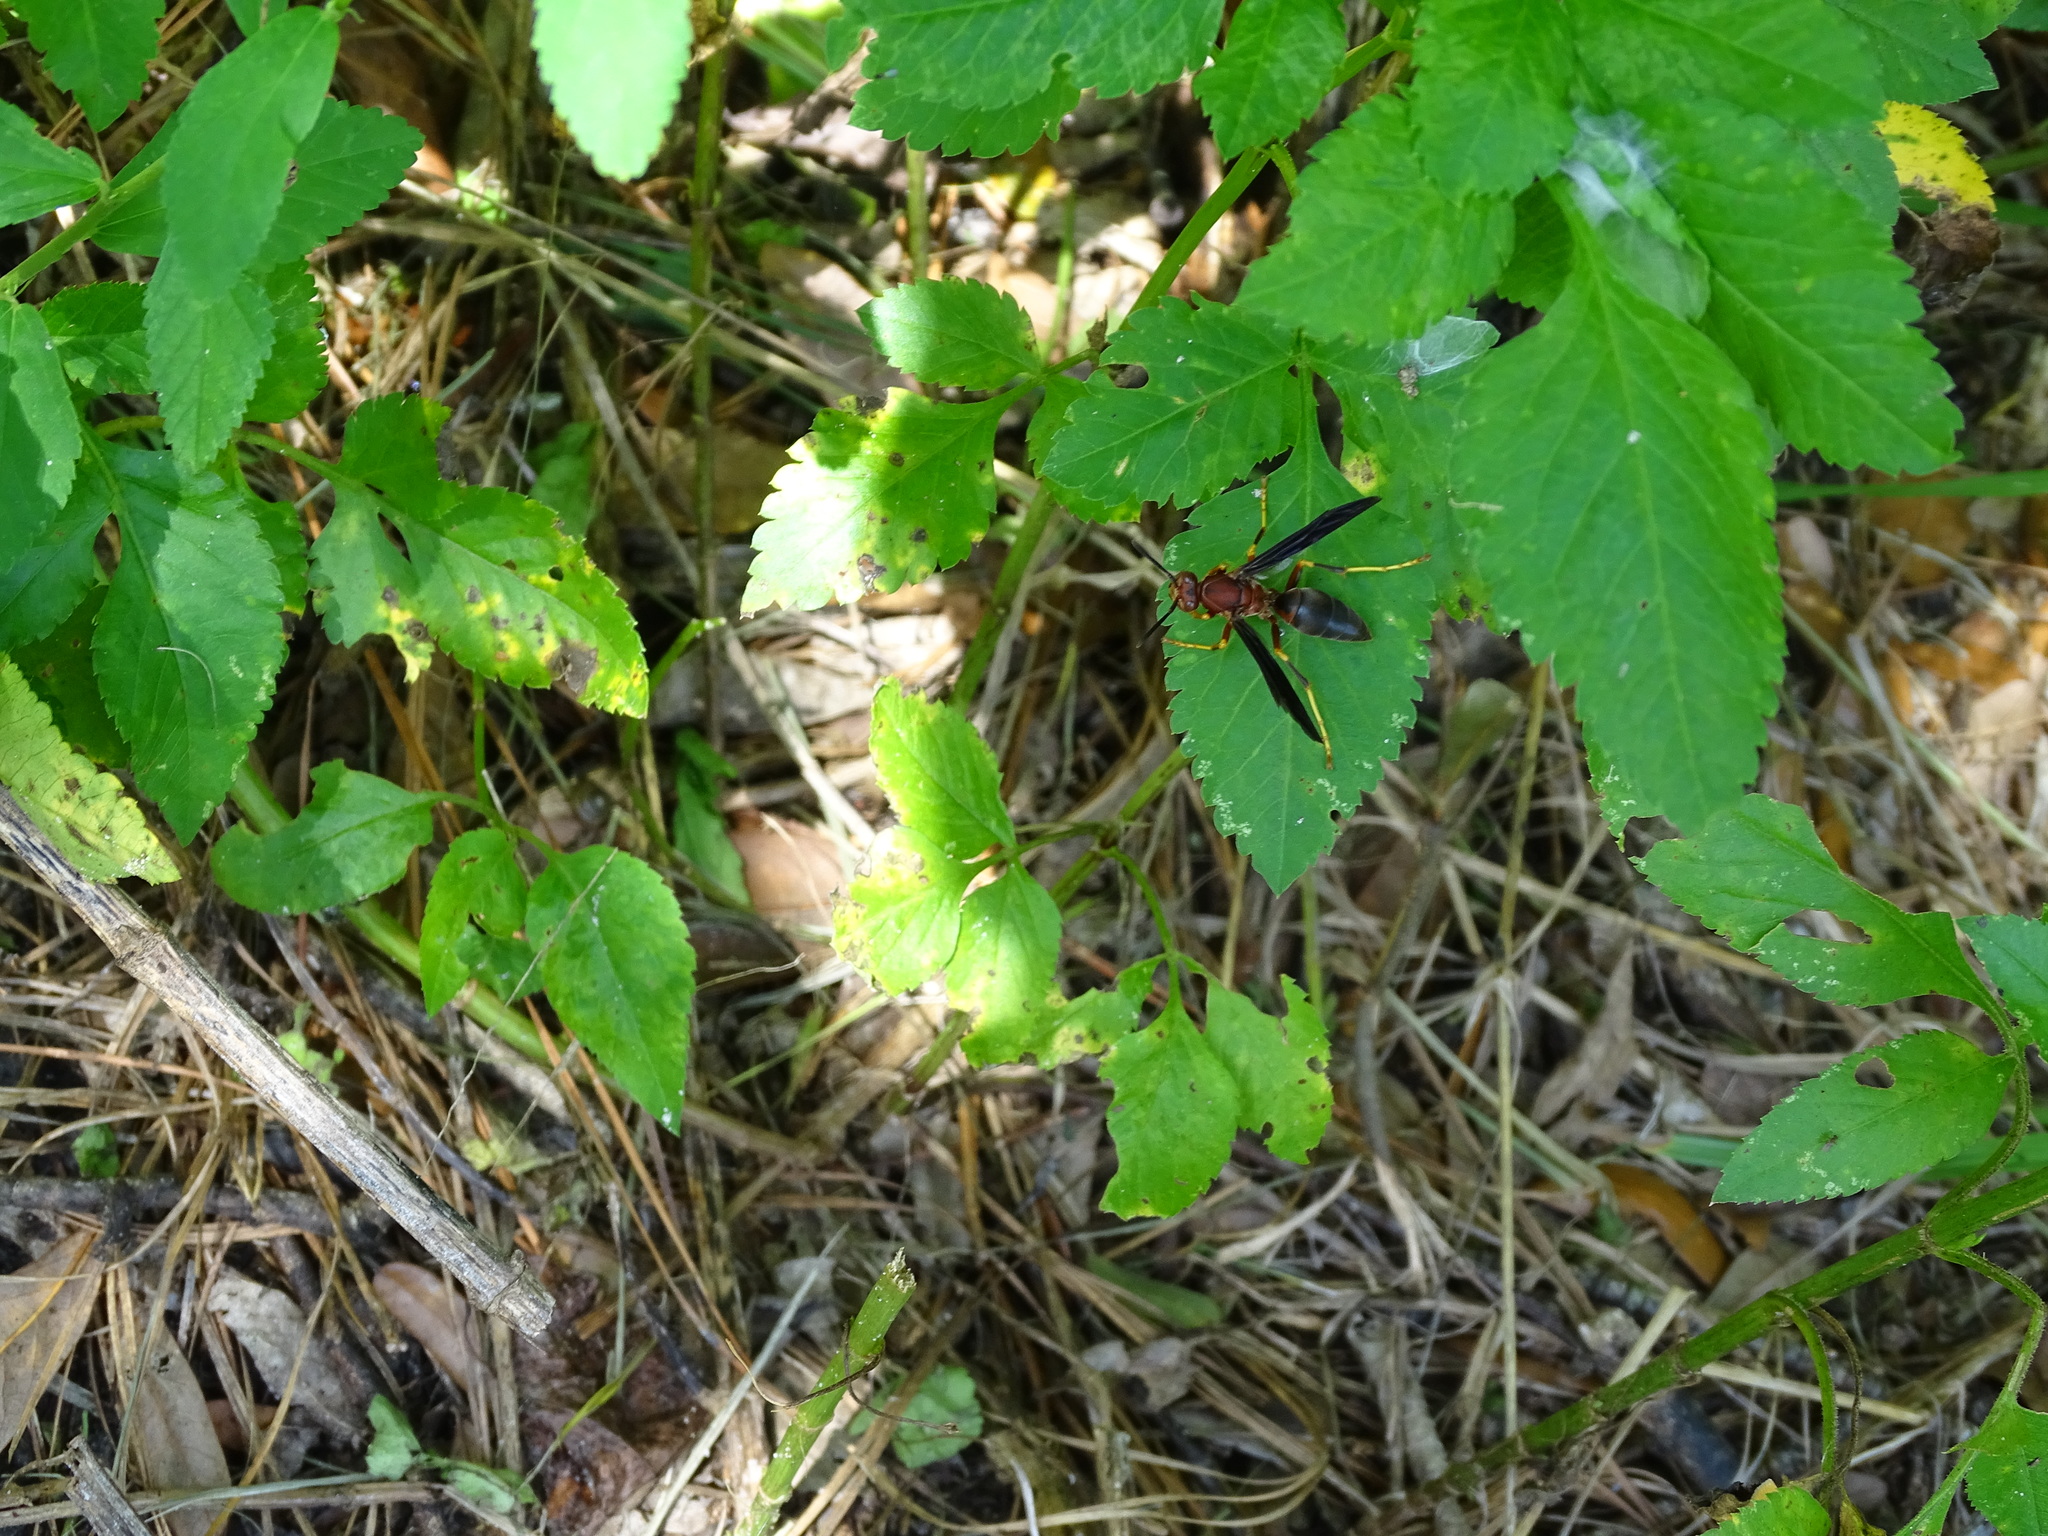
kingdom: Animalia
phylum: Arthropoda
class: Insecta
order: Hymenoptera
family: Eumenidae
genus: Polistes
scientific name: Polistes metricus
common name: Metric paper wasp
